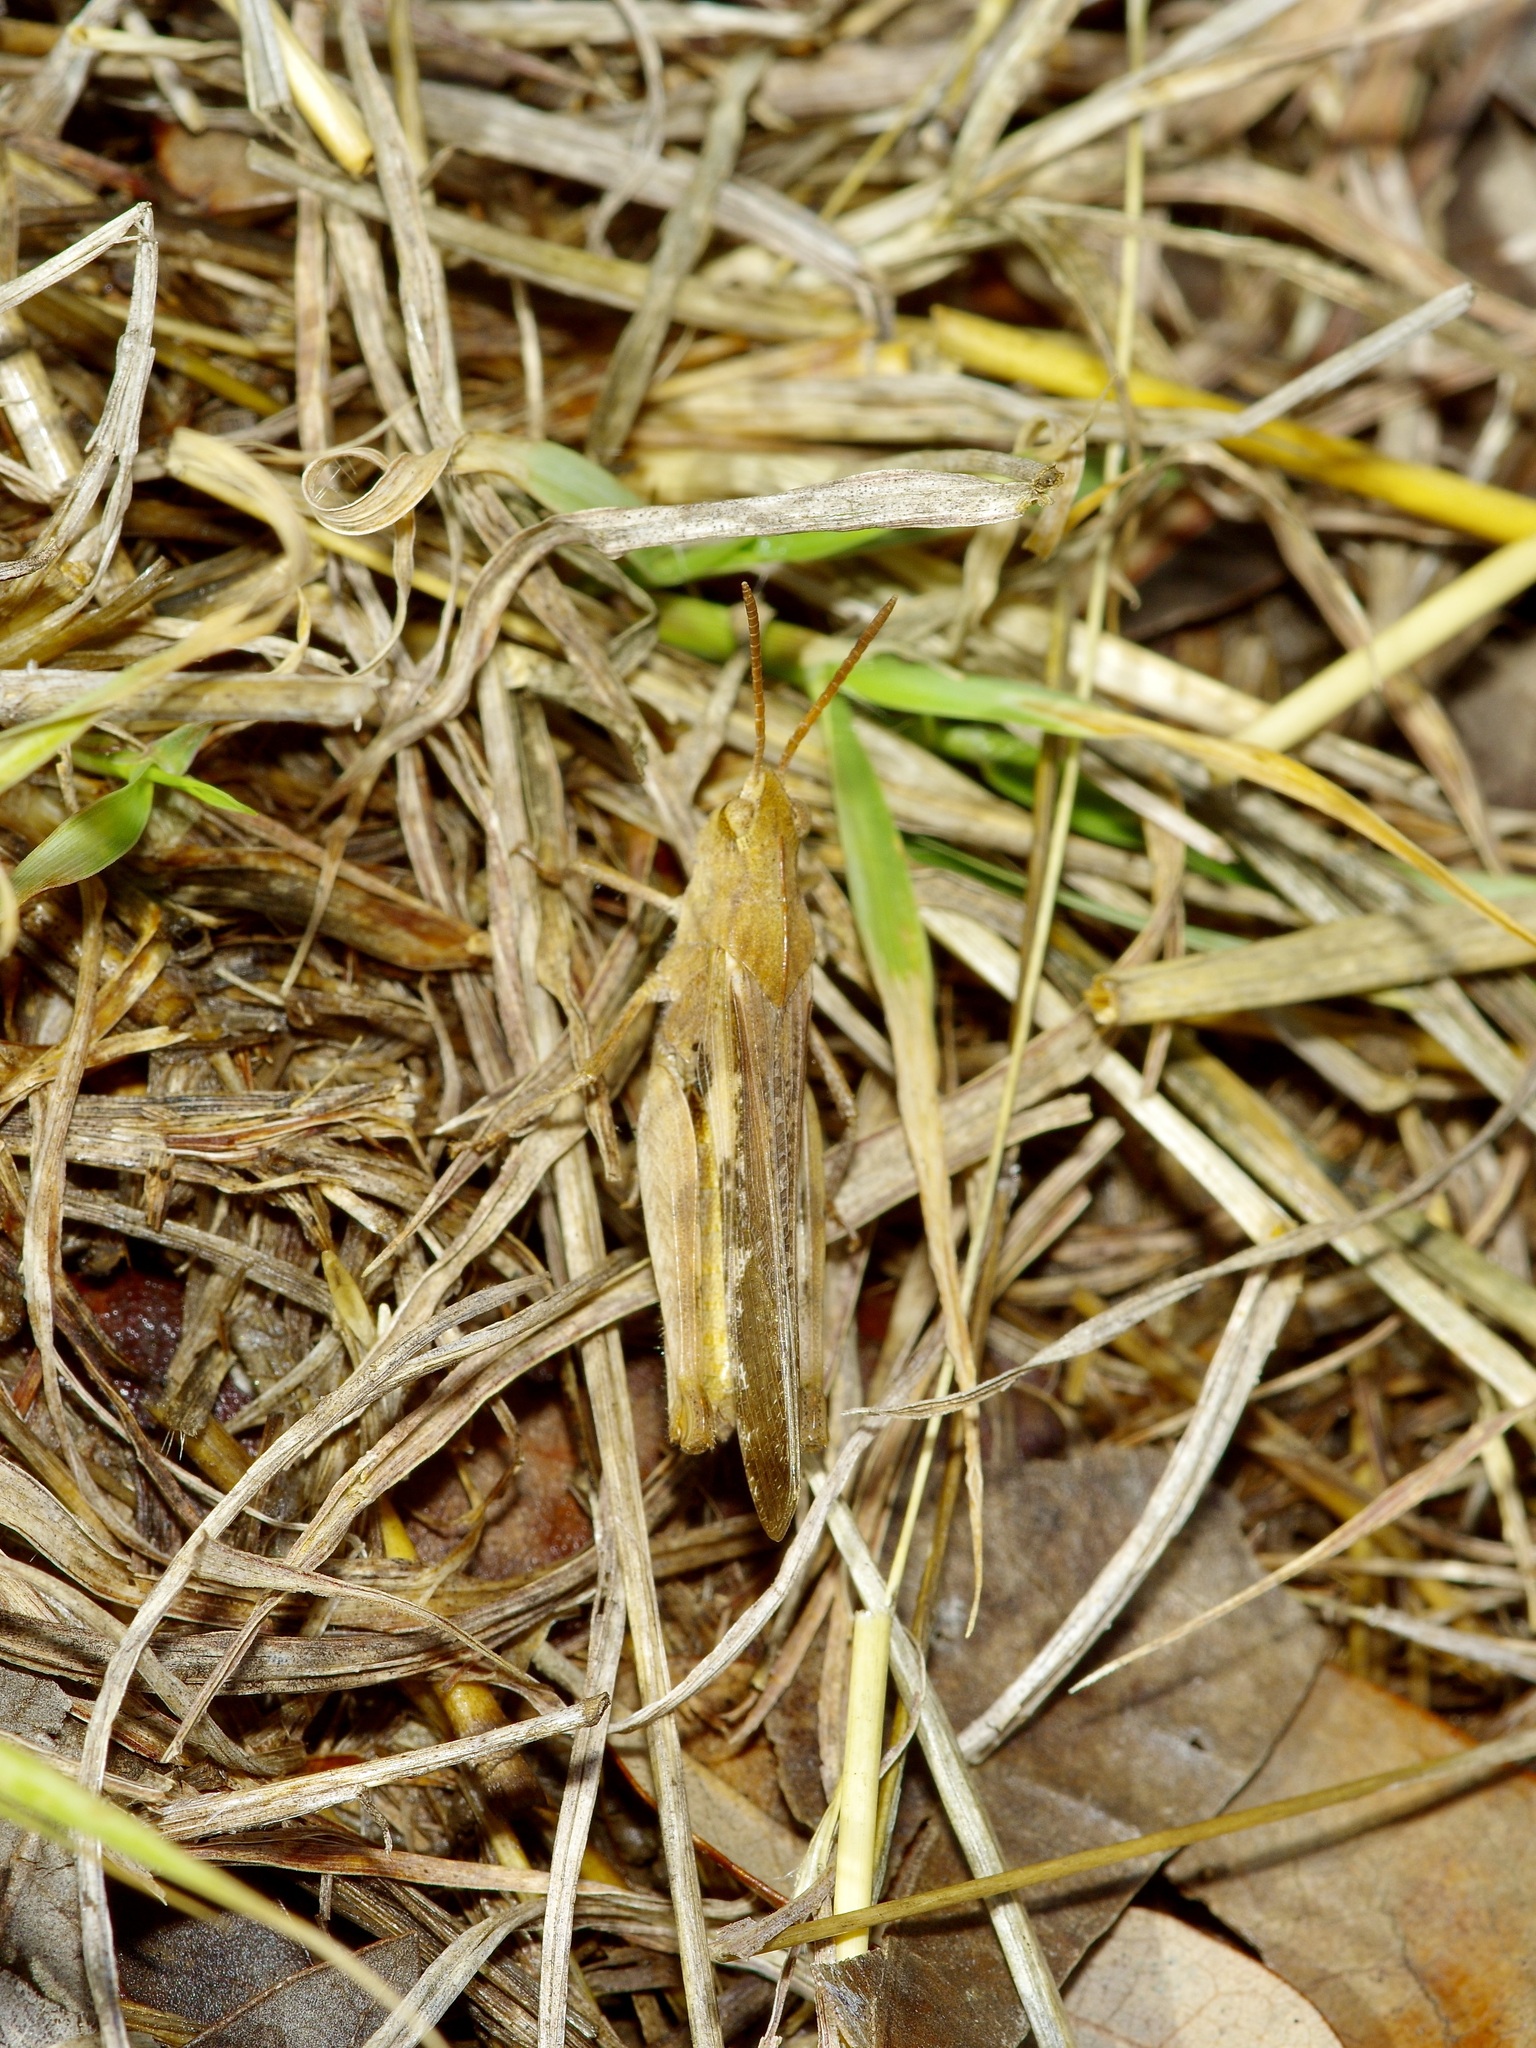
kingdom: Animalia
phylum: Arthropoda
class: Insecta
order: Orthoptera
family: Acrididae
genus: Chortophaga
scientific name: Chortophaga viridifasciata
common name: Green-striped grasshopper
